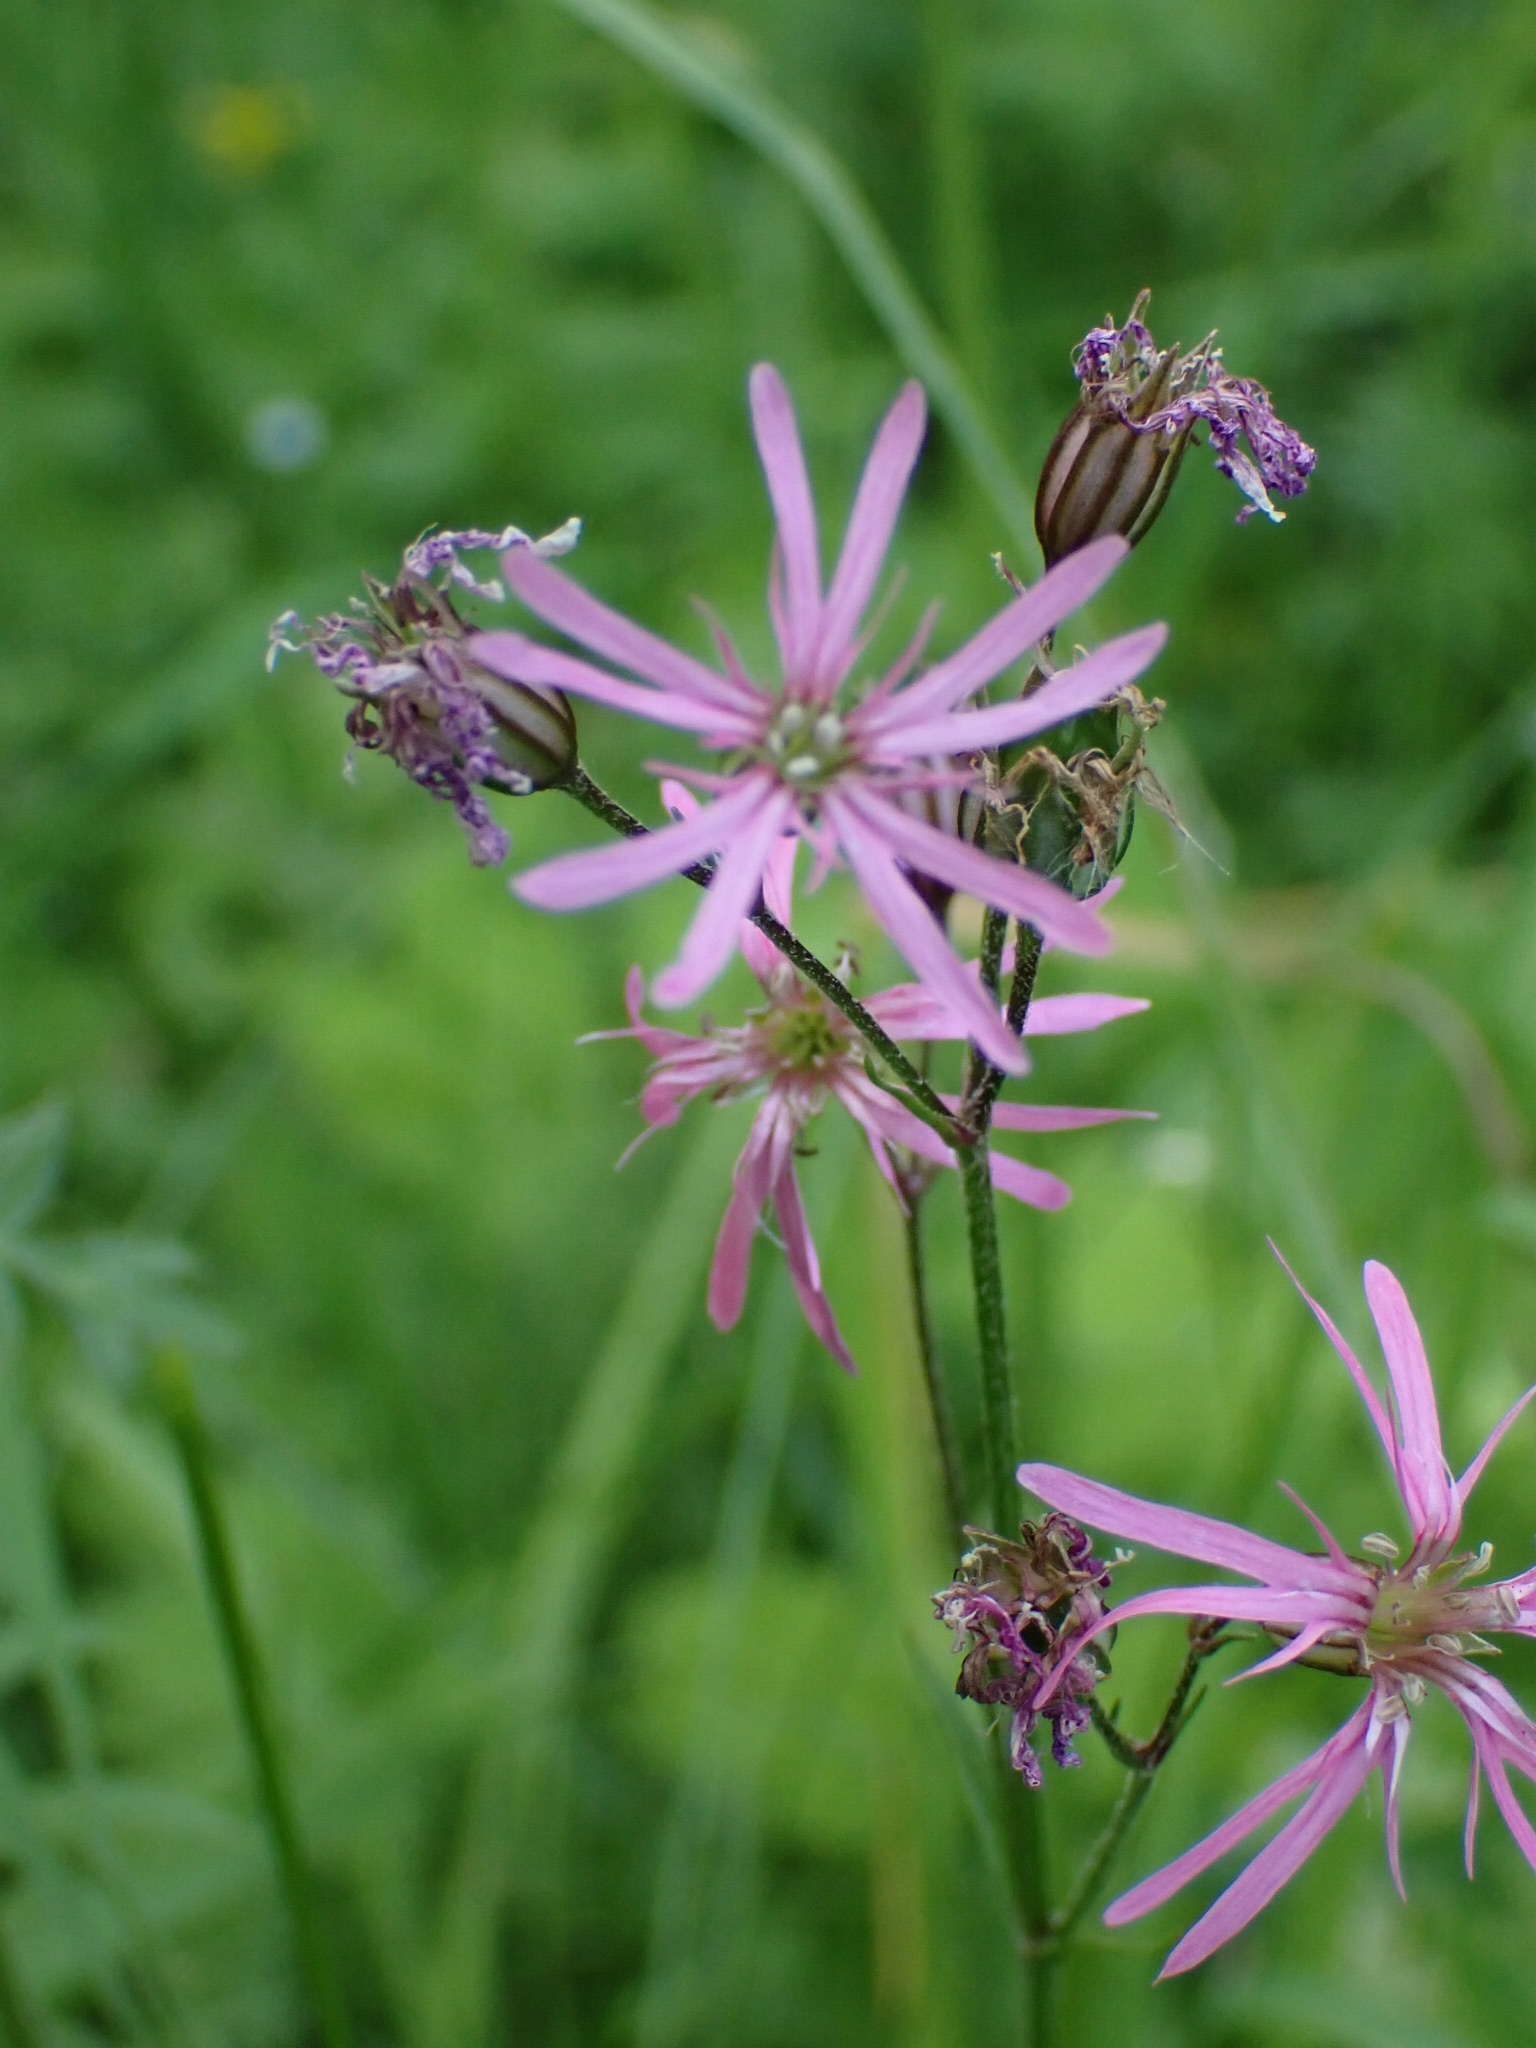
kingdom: Plantae
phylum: Tracheophyta
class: Magnoliopsida
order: Caryophyllales
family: Caryophyllaceae
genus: Silene
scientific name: Silene flos-cuculi
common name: Ragged-robin
